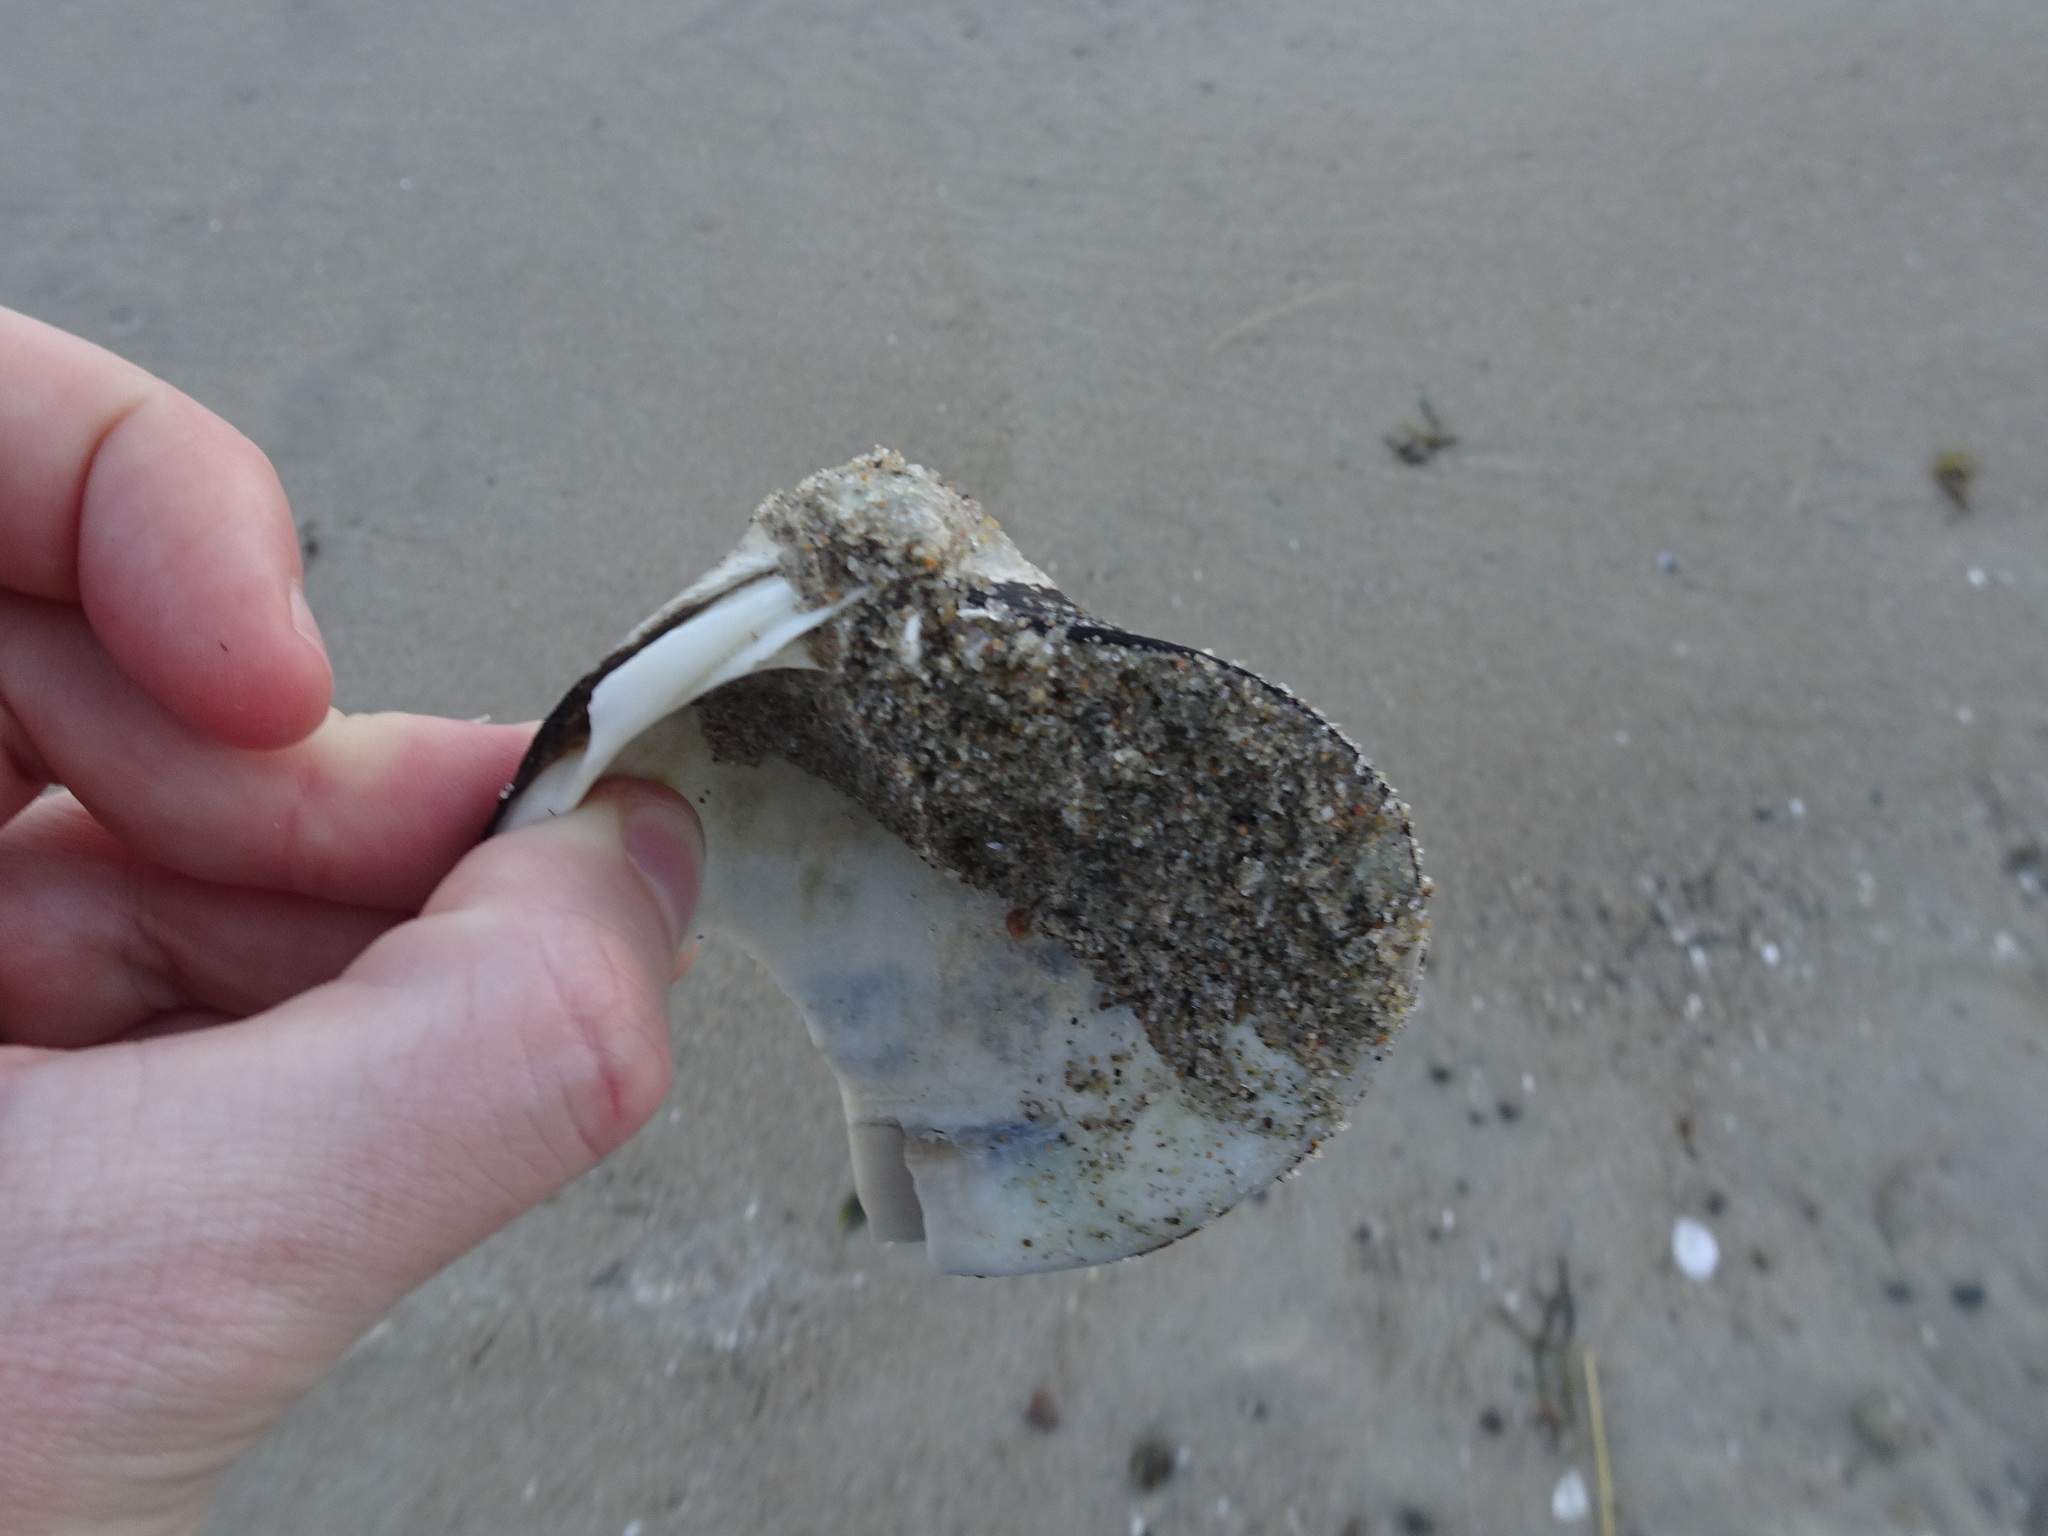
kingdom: Animalia
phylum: Mollusca
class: Bivalvia
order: Venerida
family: Arcticidae
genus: Arctica
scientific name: Arctica islandica
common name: Icelandic cyprine
